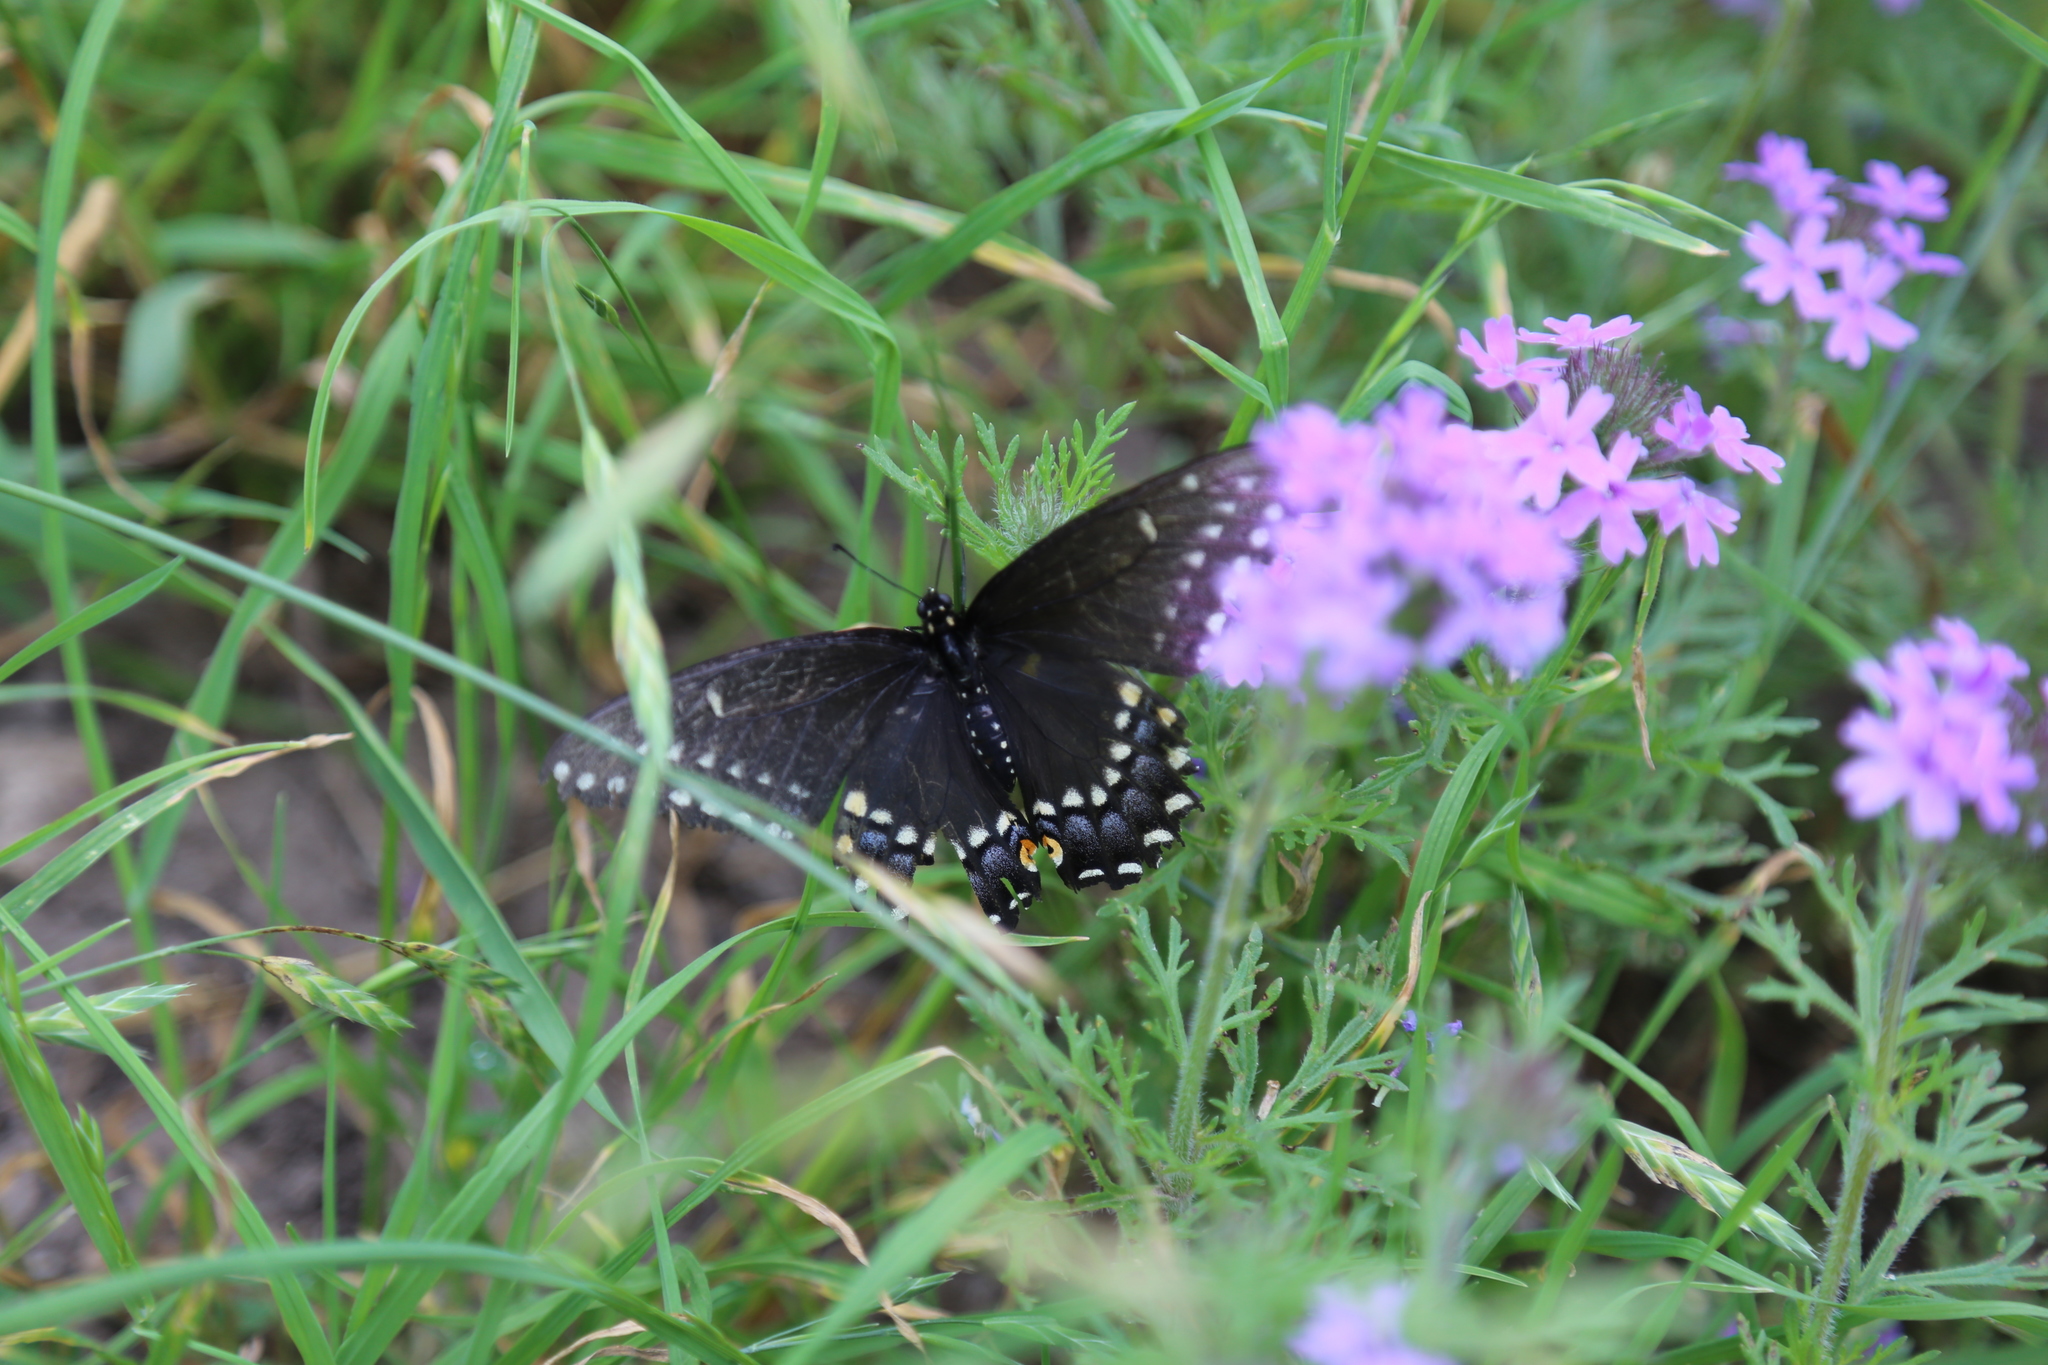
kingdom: Animalia
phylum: Arthropoda
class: Insecta
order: Lepidoptera
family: Papilionidae
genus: Papilio
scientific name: Papilio polyxenes
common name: Black swallowtail
